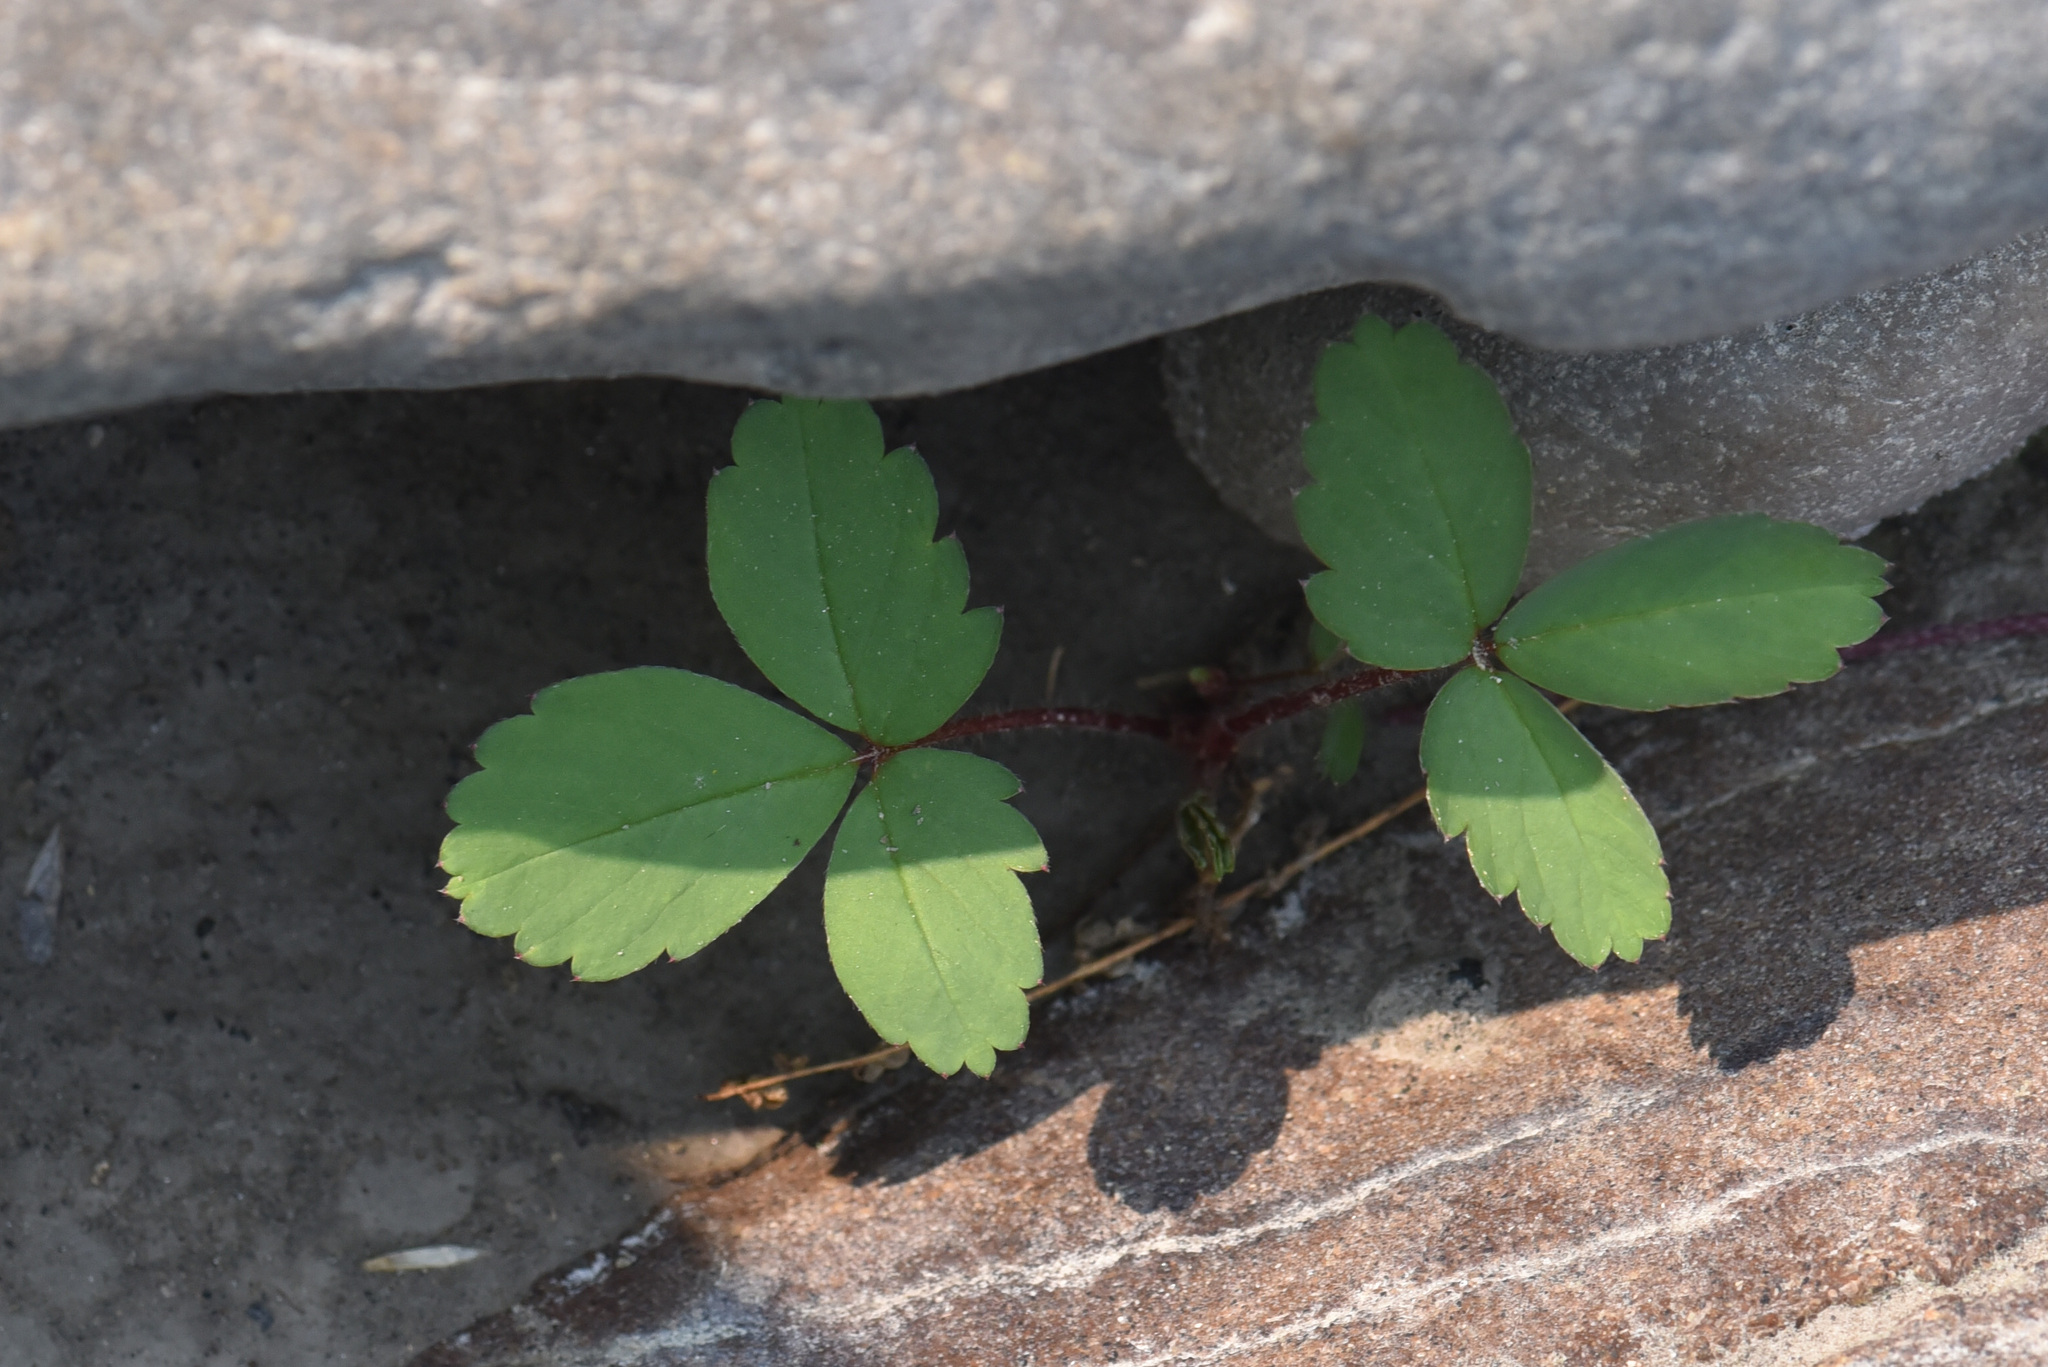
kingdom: Plantae
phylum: Tracheophyta
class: Magnoliopsida
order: Rosales
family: Rosaceae
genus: Fragaria
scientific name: Fragaria virginiana
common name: Thickleaved wild strawberry
